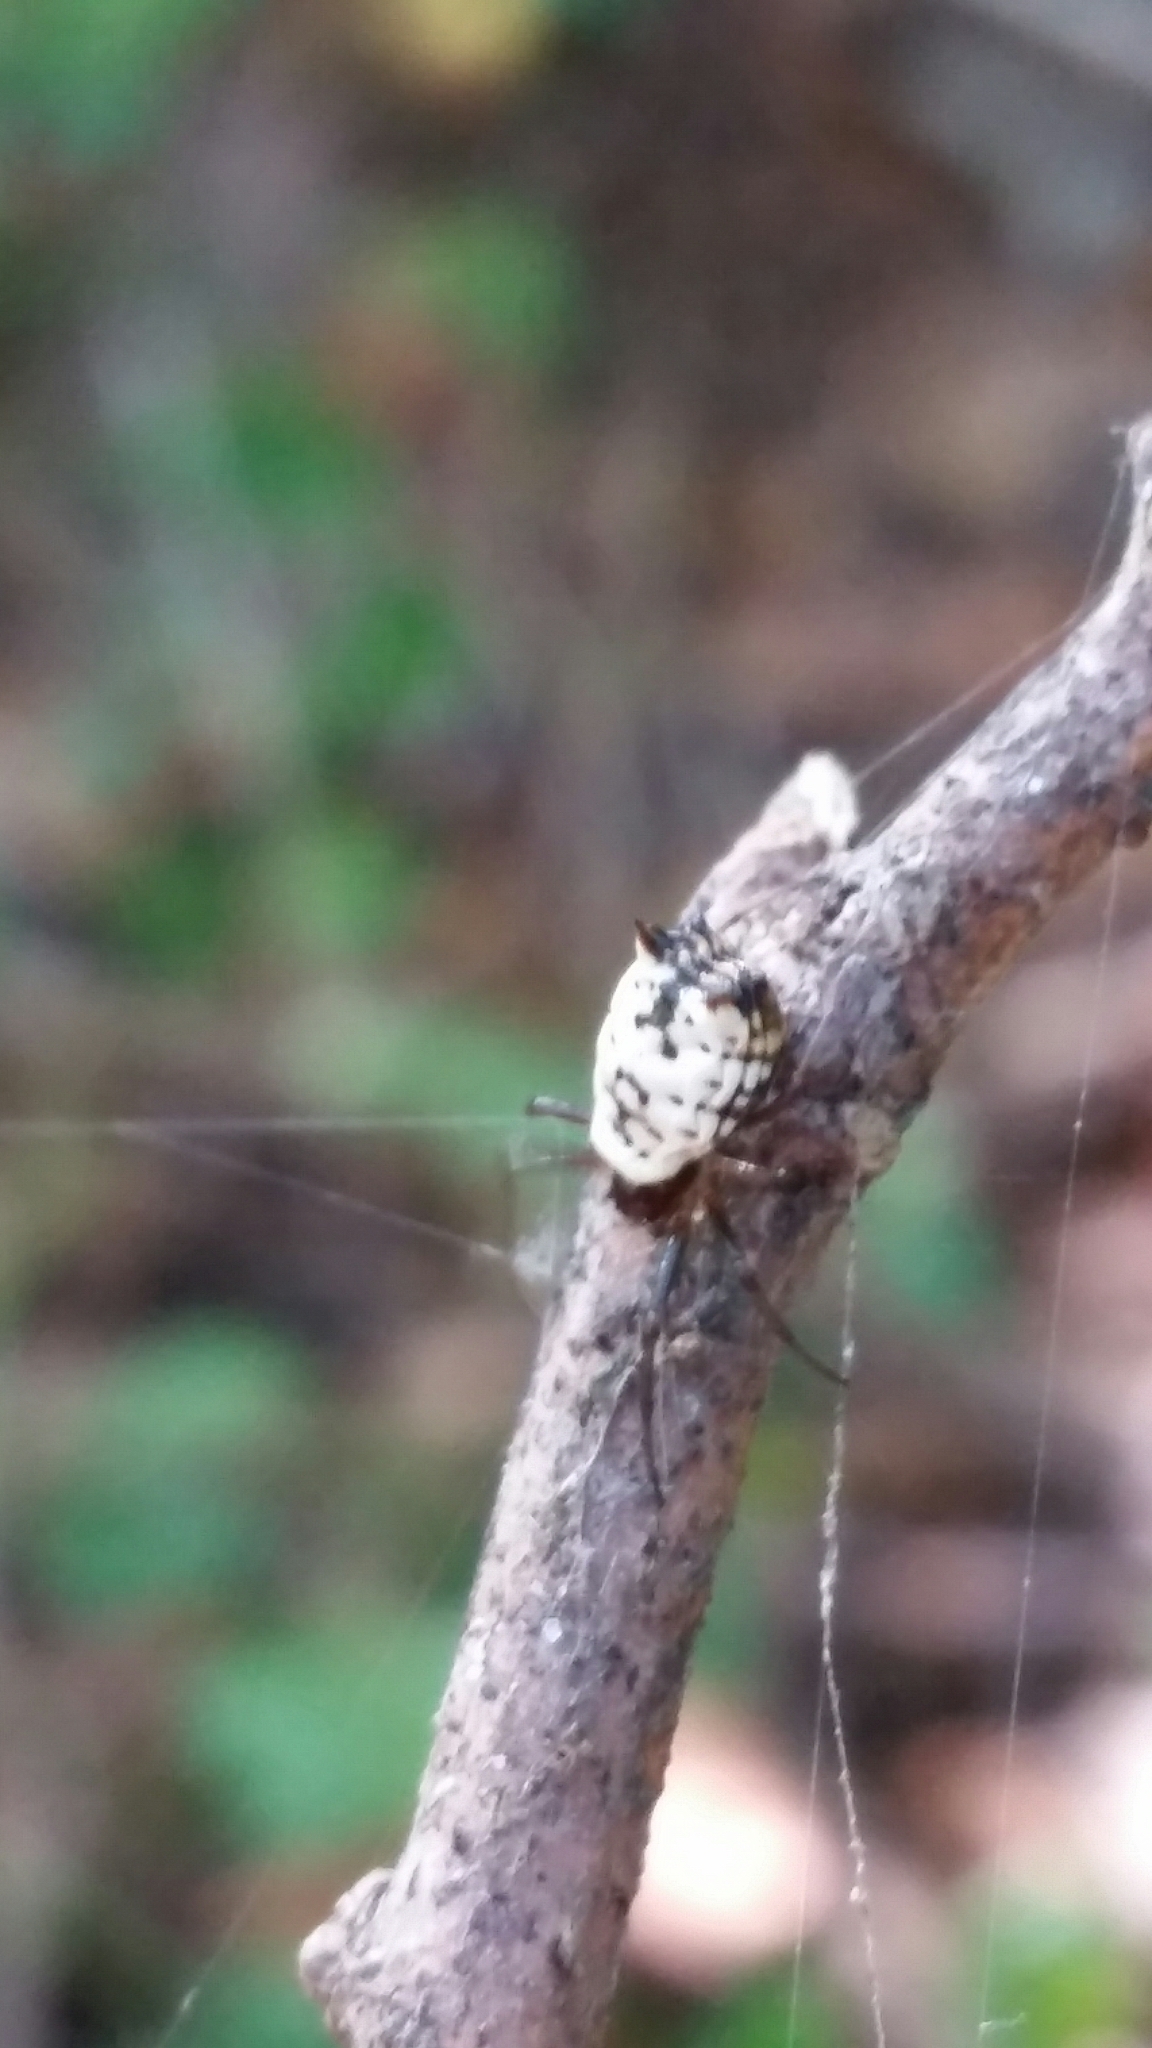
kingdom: Animalia
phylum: Arthropoda
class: Arachnida
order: Araneae
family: Araneidae
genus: Micrathena
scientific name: Micrathena mitrata
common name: Orb weavers
